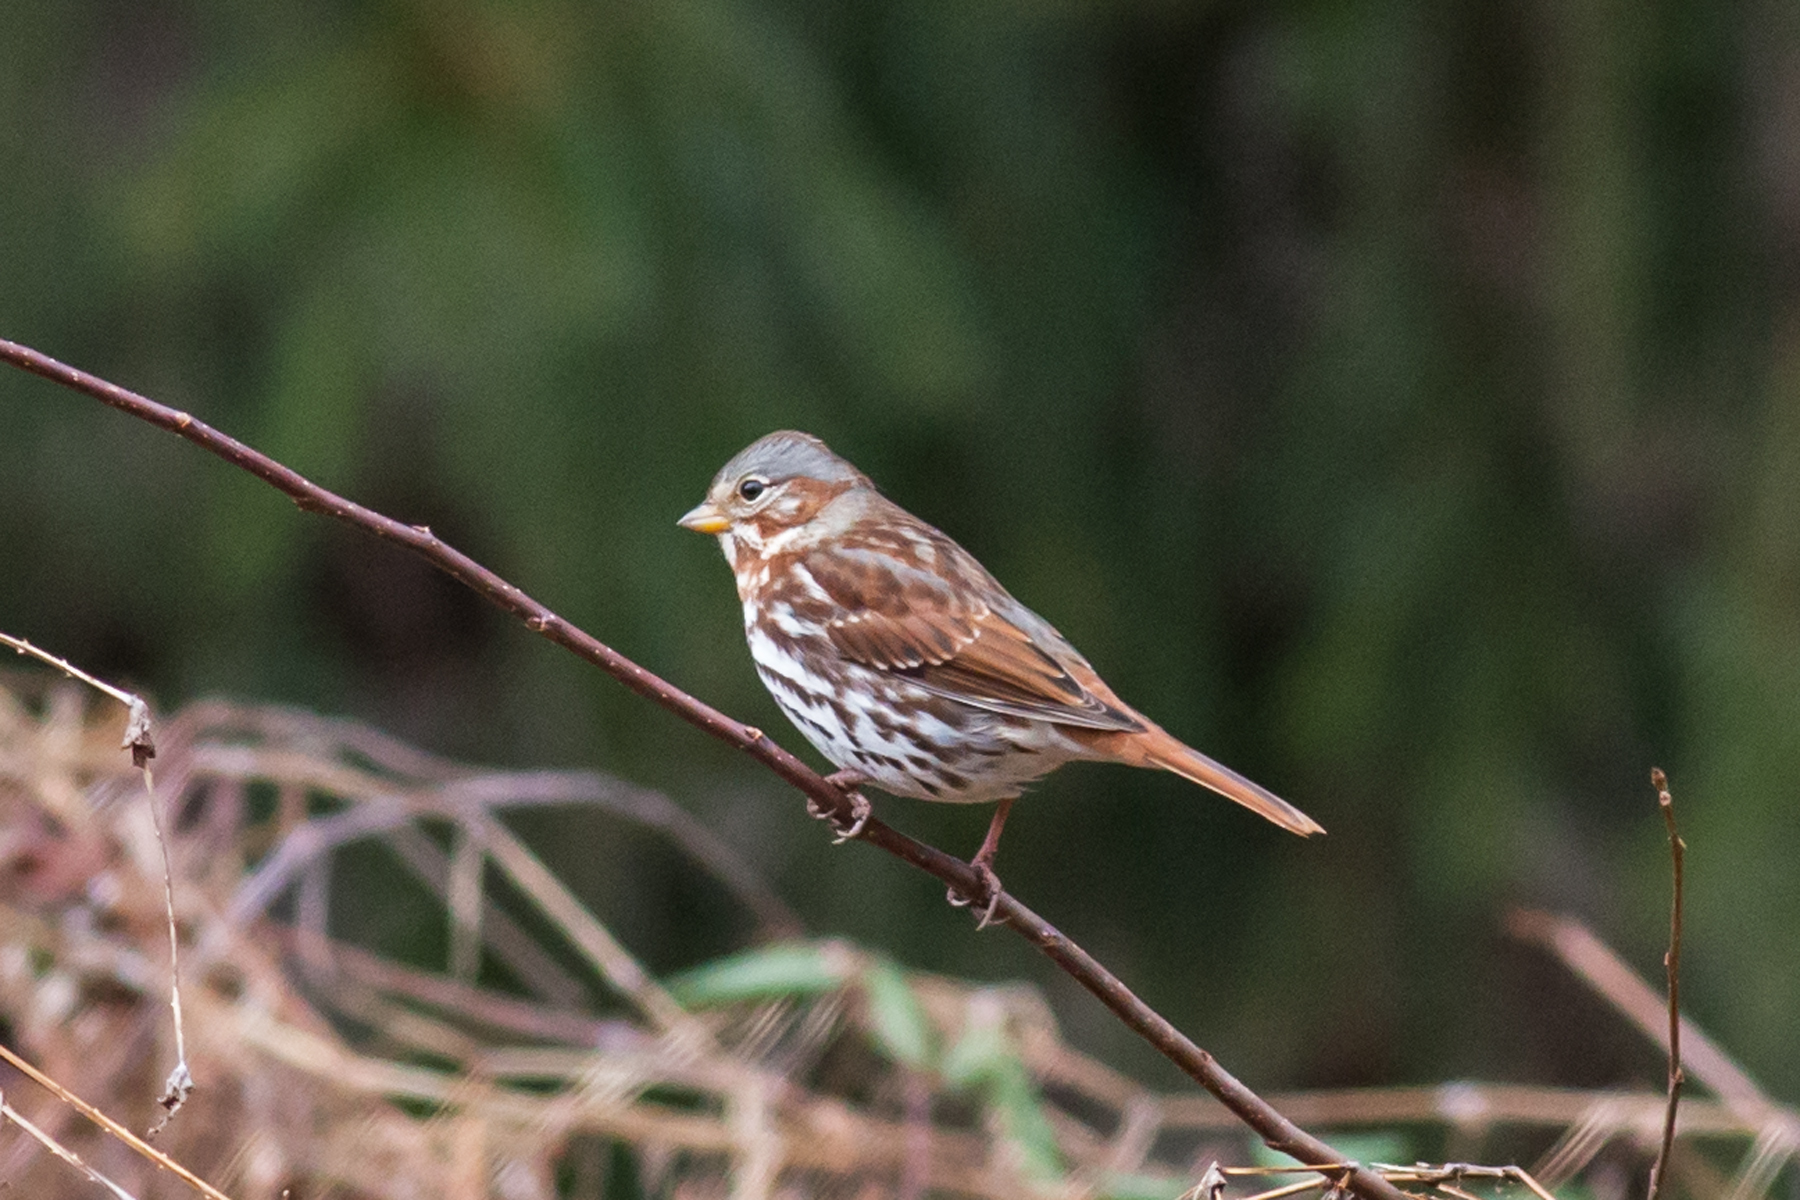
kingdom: Animalia
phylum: Chordata
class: Aves
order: Passeriformes
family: Passerellidae
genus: Passerella
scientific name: Passerella iliaca
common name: Fox sparrow
